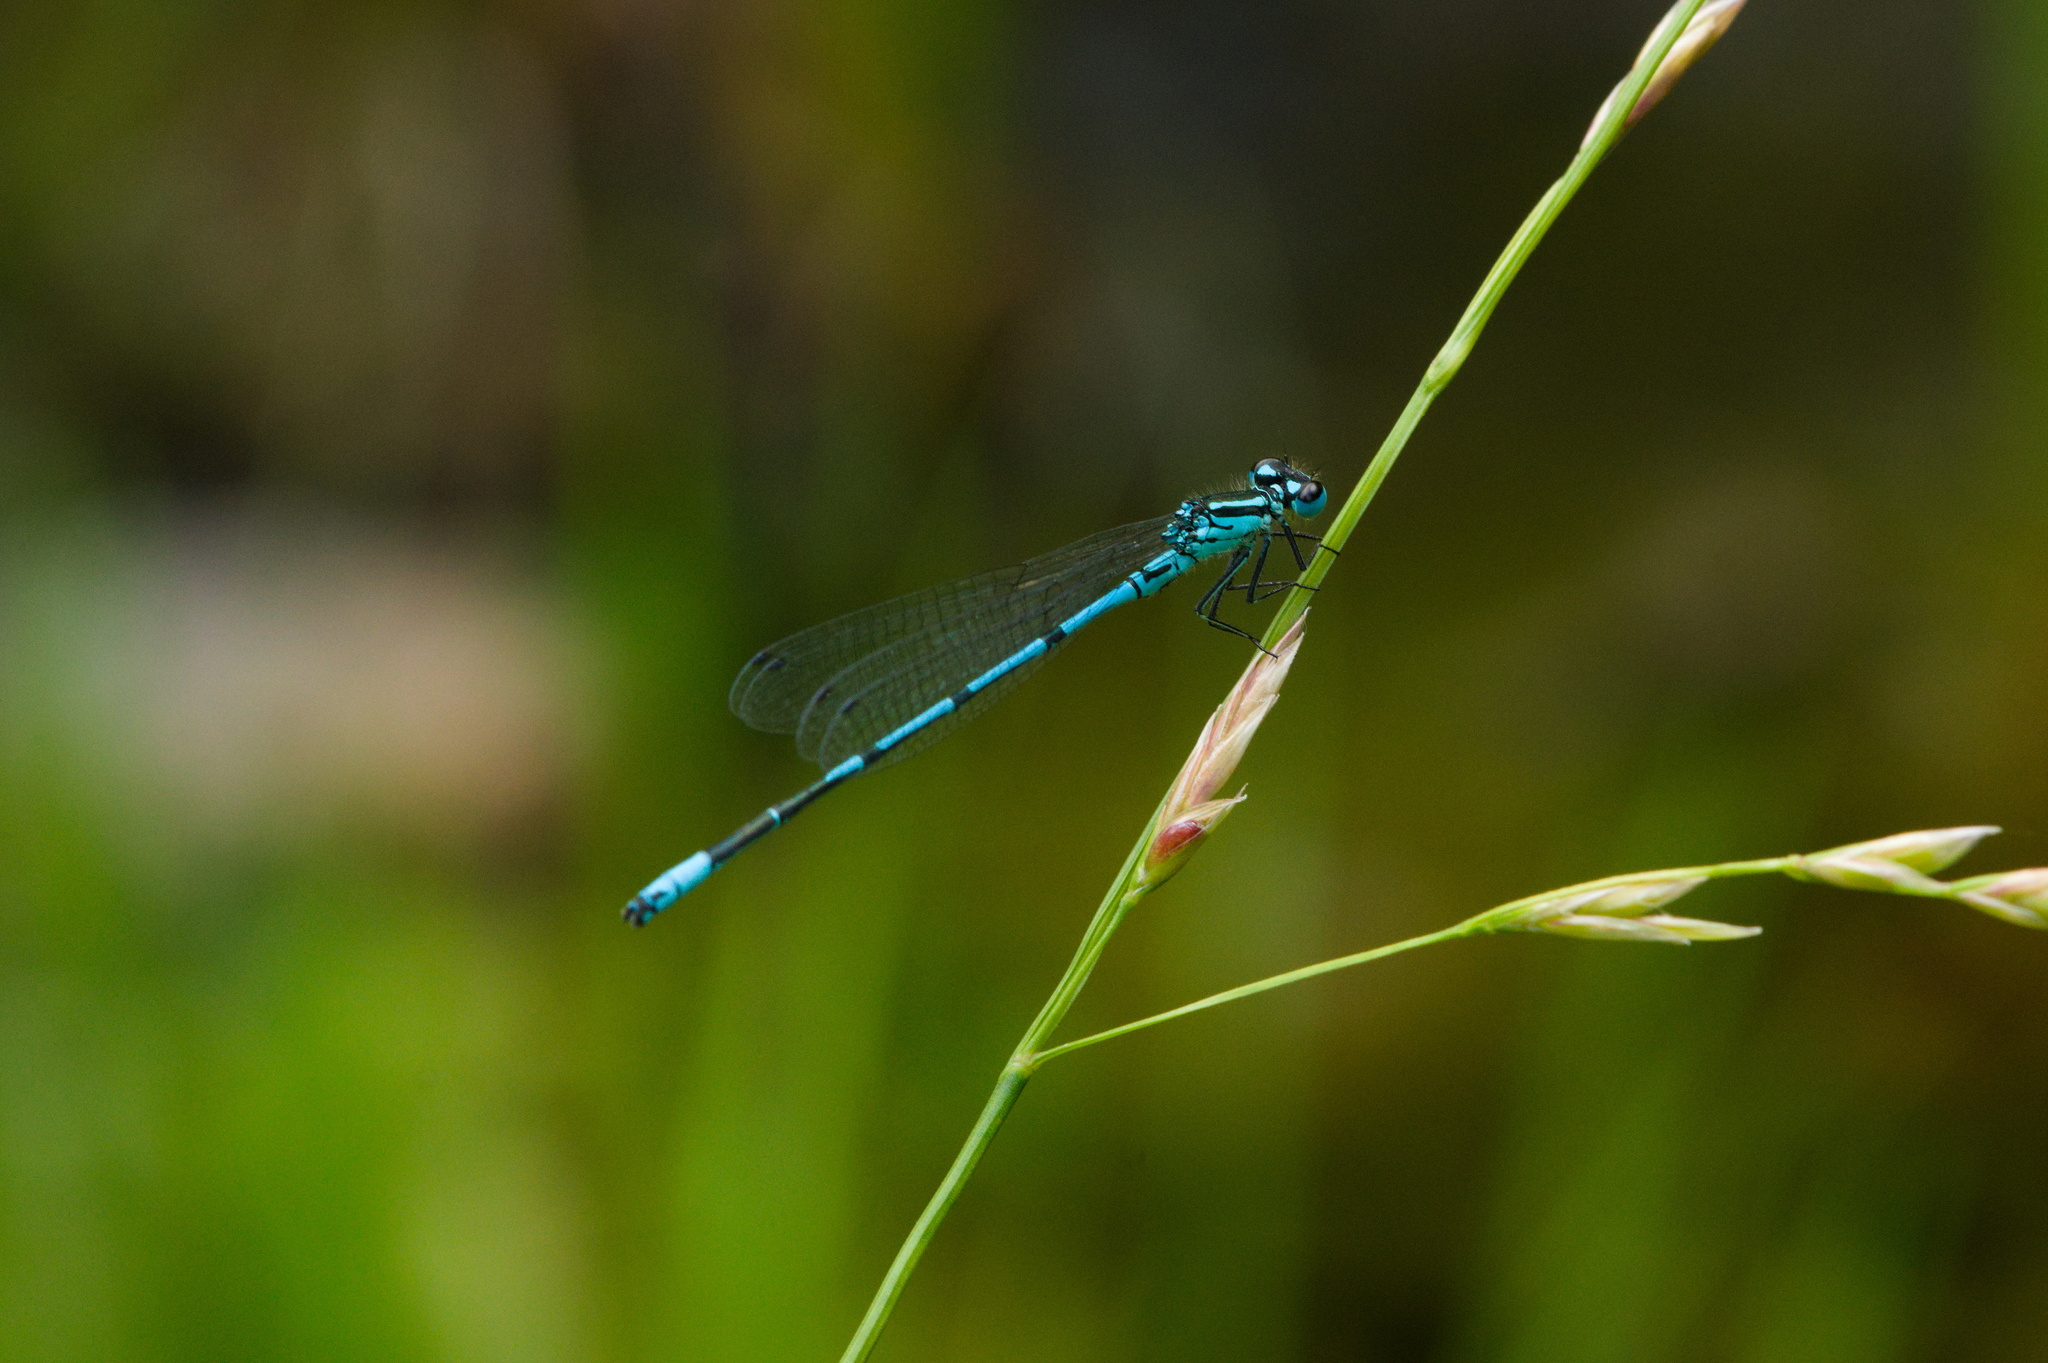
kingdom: Animalia
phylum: Arthropoda
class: Insecta
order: Odonata
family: Coenagrionidae
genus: Coenagrion
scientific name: Coenagrion puella
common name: Azure damselfly
